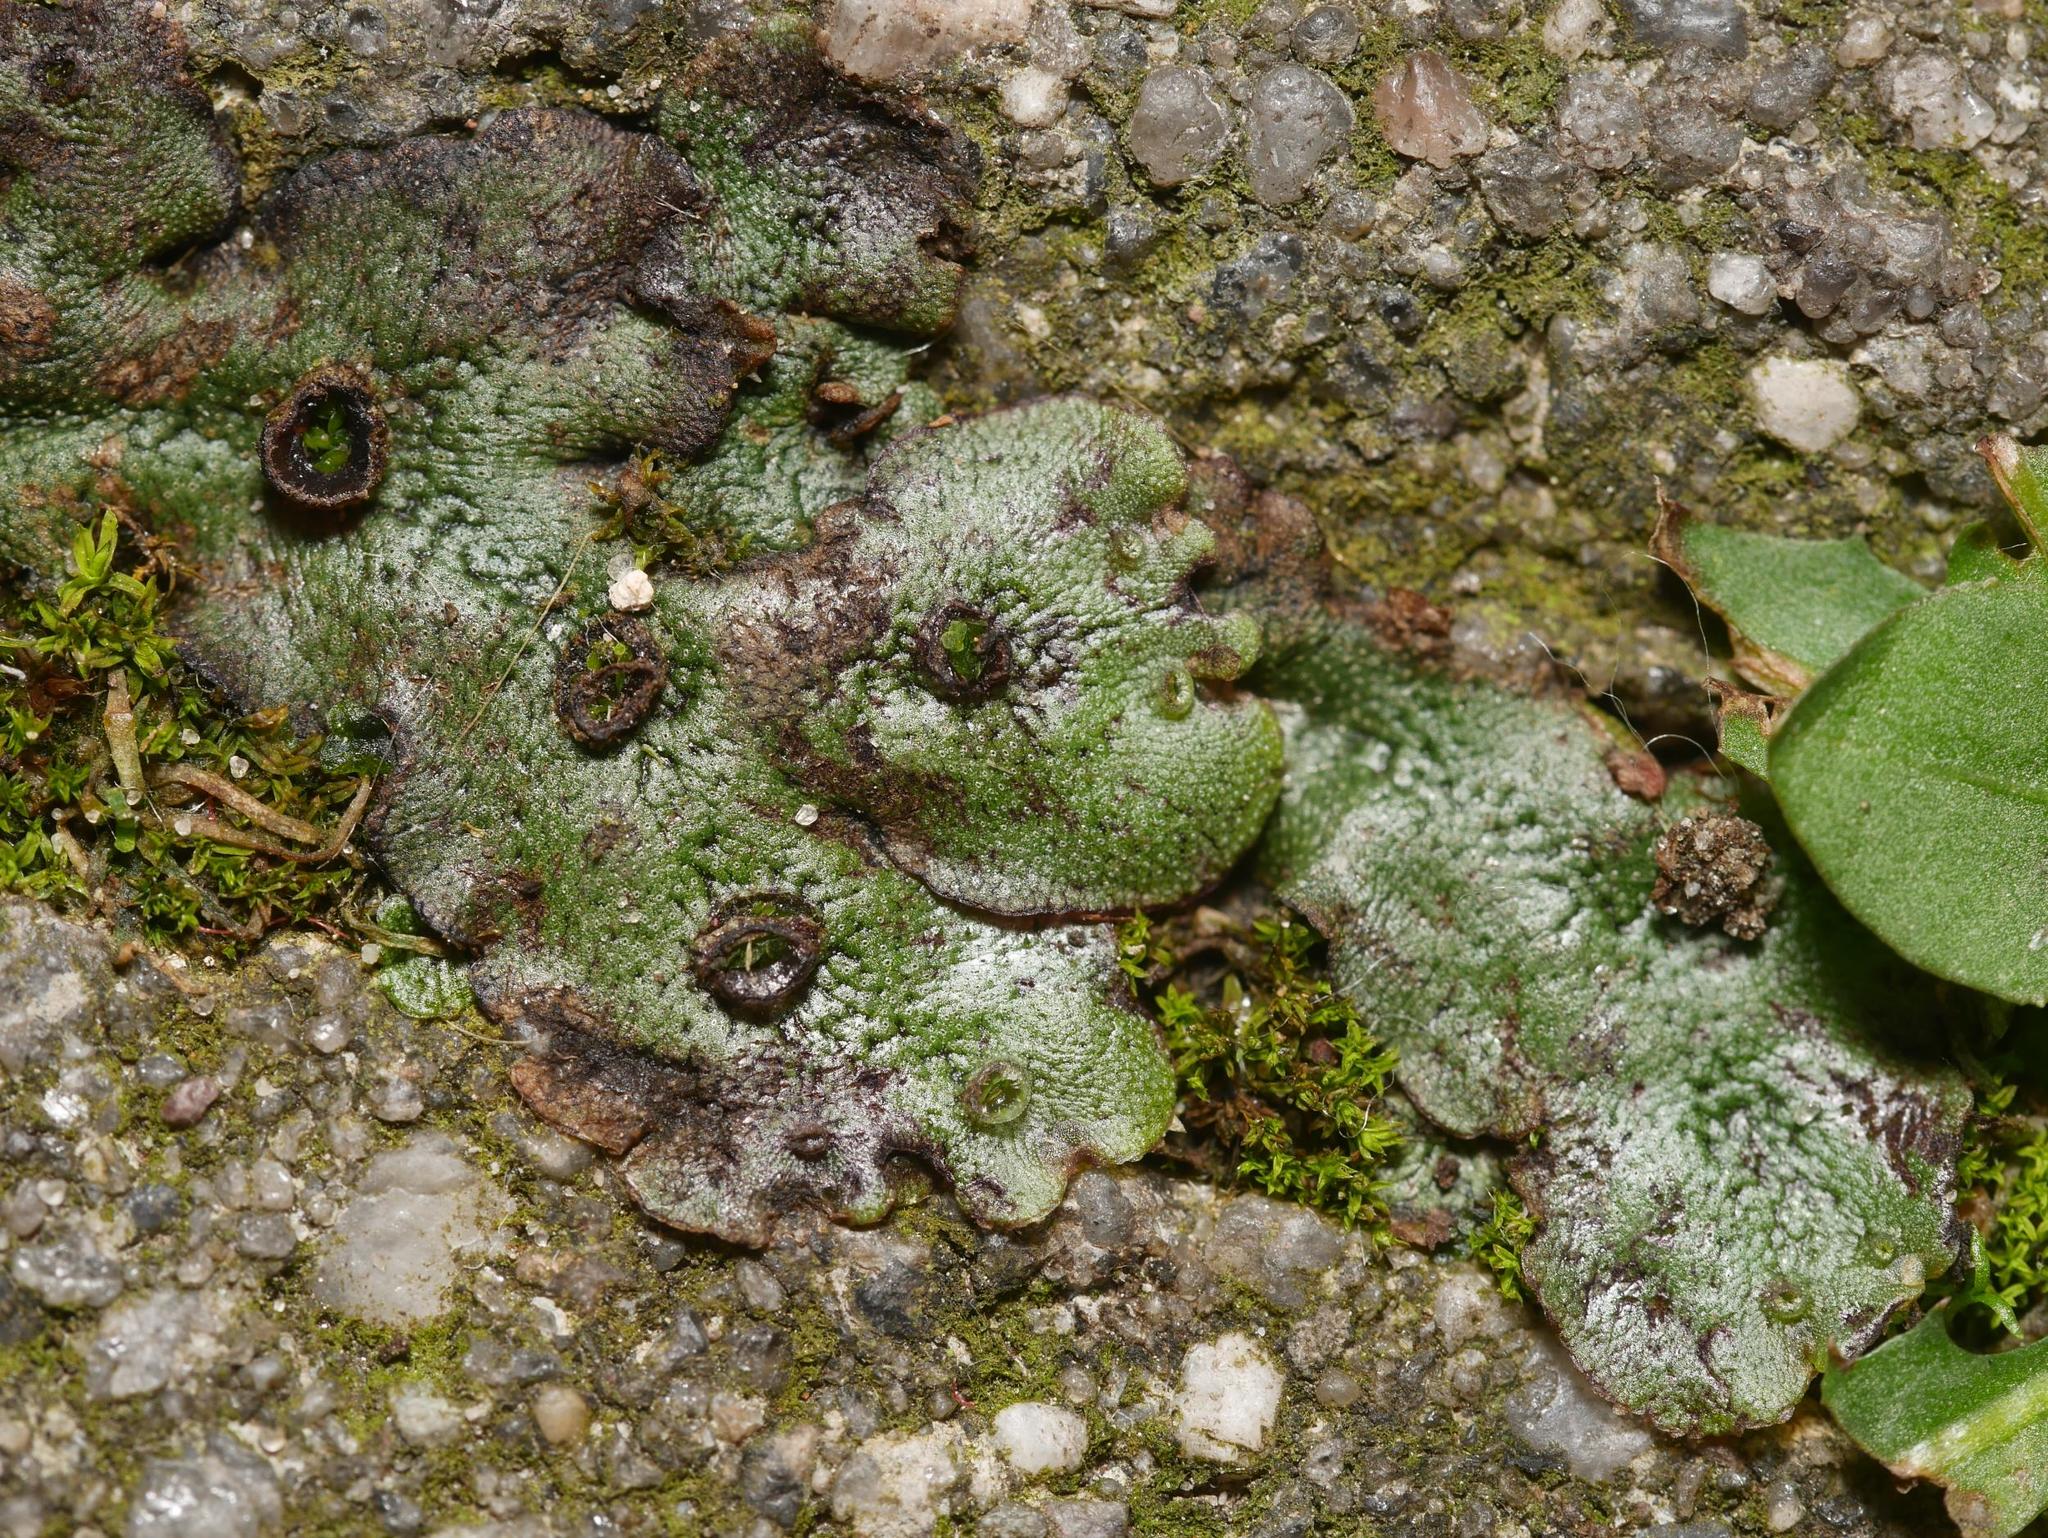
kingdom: Plantae
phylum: Marchantiophyta
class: Marchantiopsida
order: Marchantiales
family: Marchantiaceae
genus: Marchantia
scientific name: Marchantia polymorpha
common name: Common liverwort
